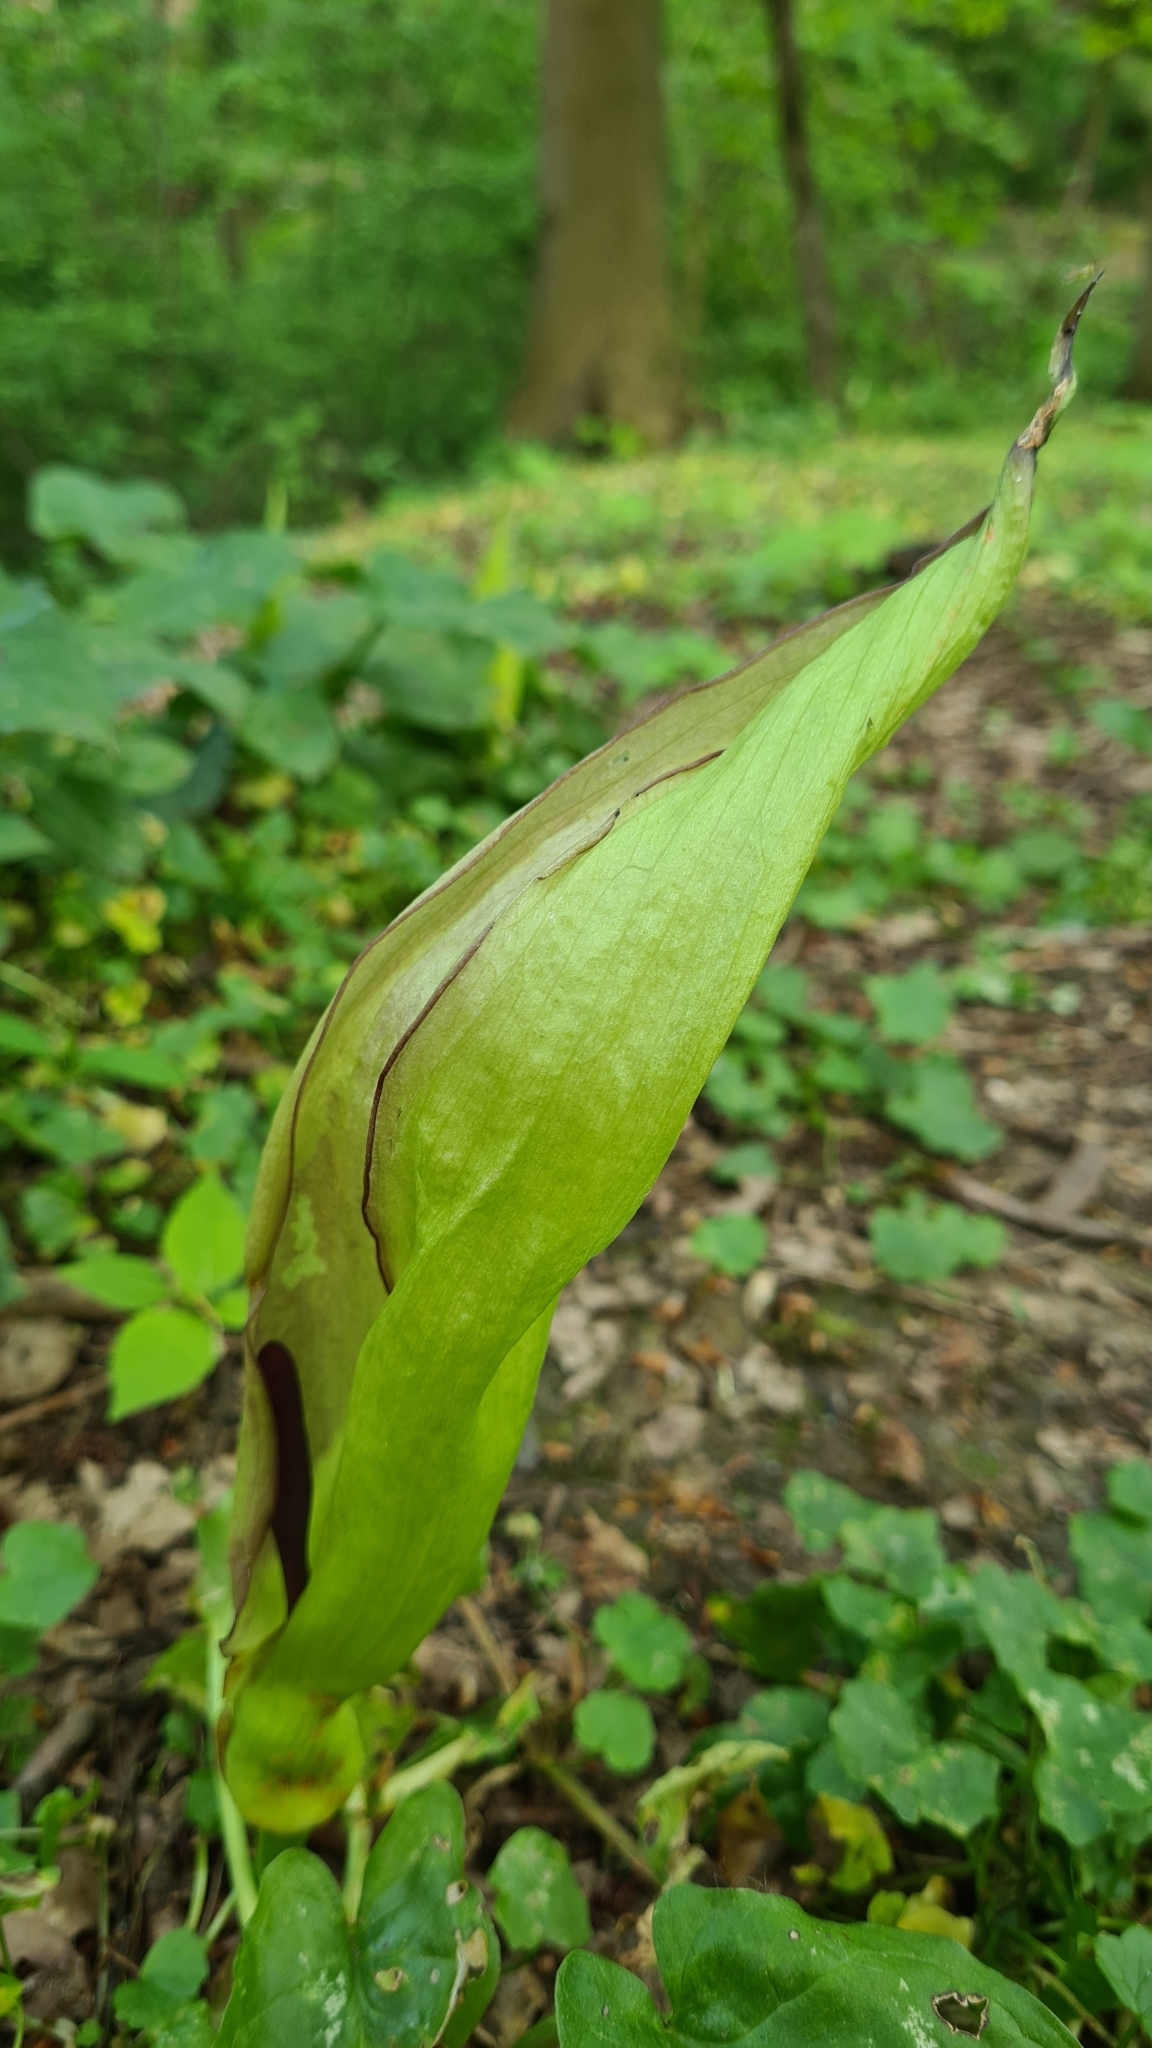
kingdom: Plantae
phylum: Tracheophyta
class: Liliopsida
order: Alismatales
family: Araceae
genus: Arum
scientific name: Arum maculatum
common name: Lords-and-ladies
